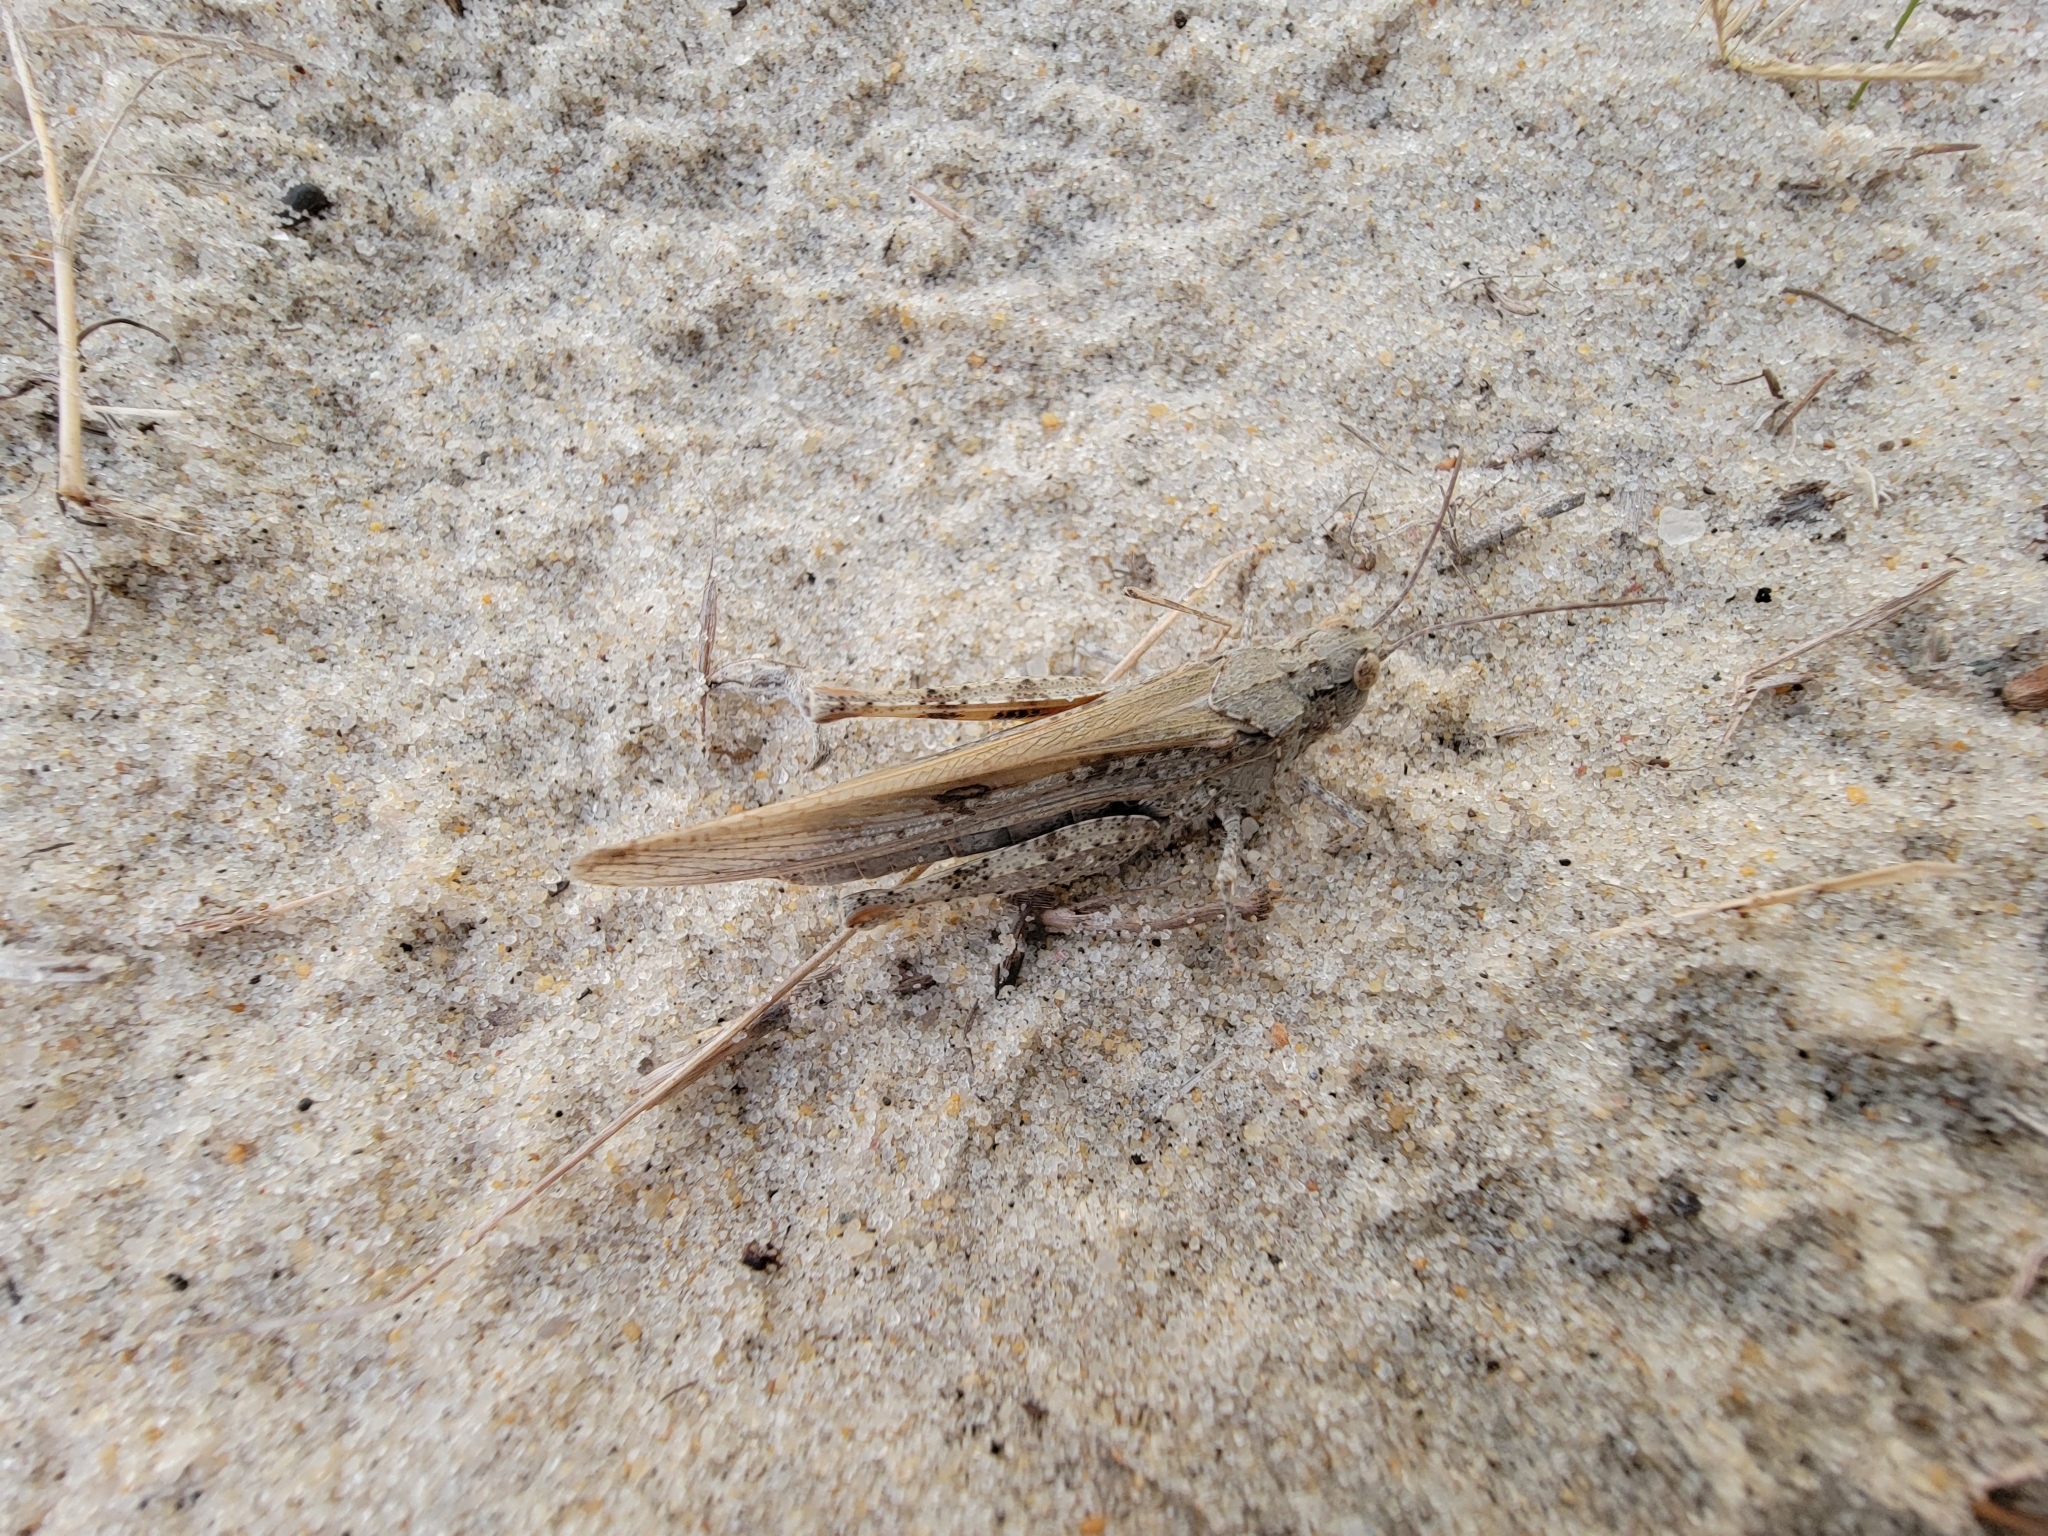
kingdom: Animalia
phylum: Arthropoda
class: Insecta
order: Orthoptera
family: Acrididae
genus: Trimerotropis
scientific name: Trimerotropis maritima
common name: Seaside locust
